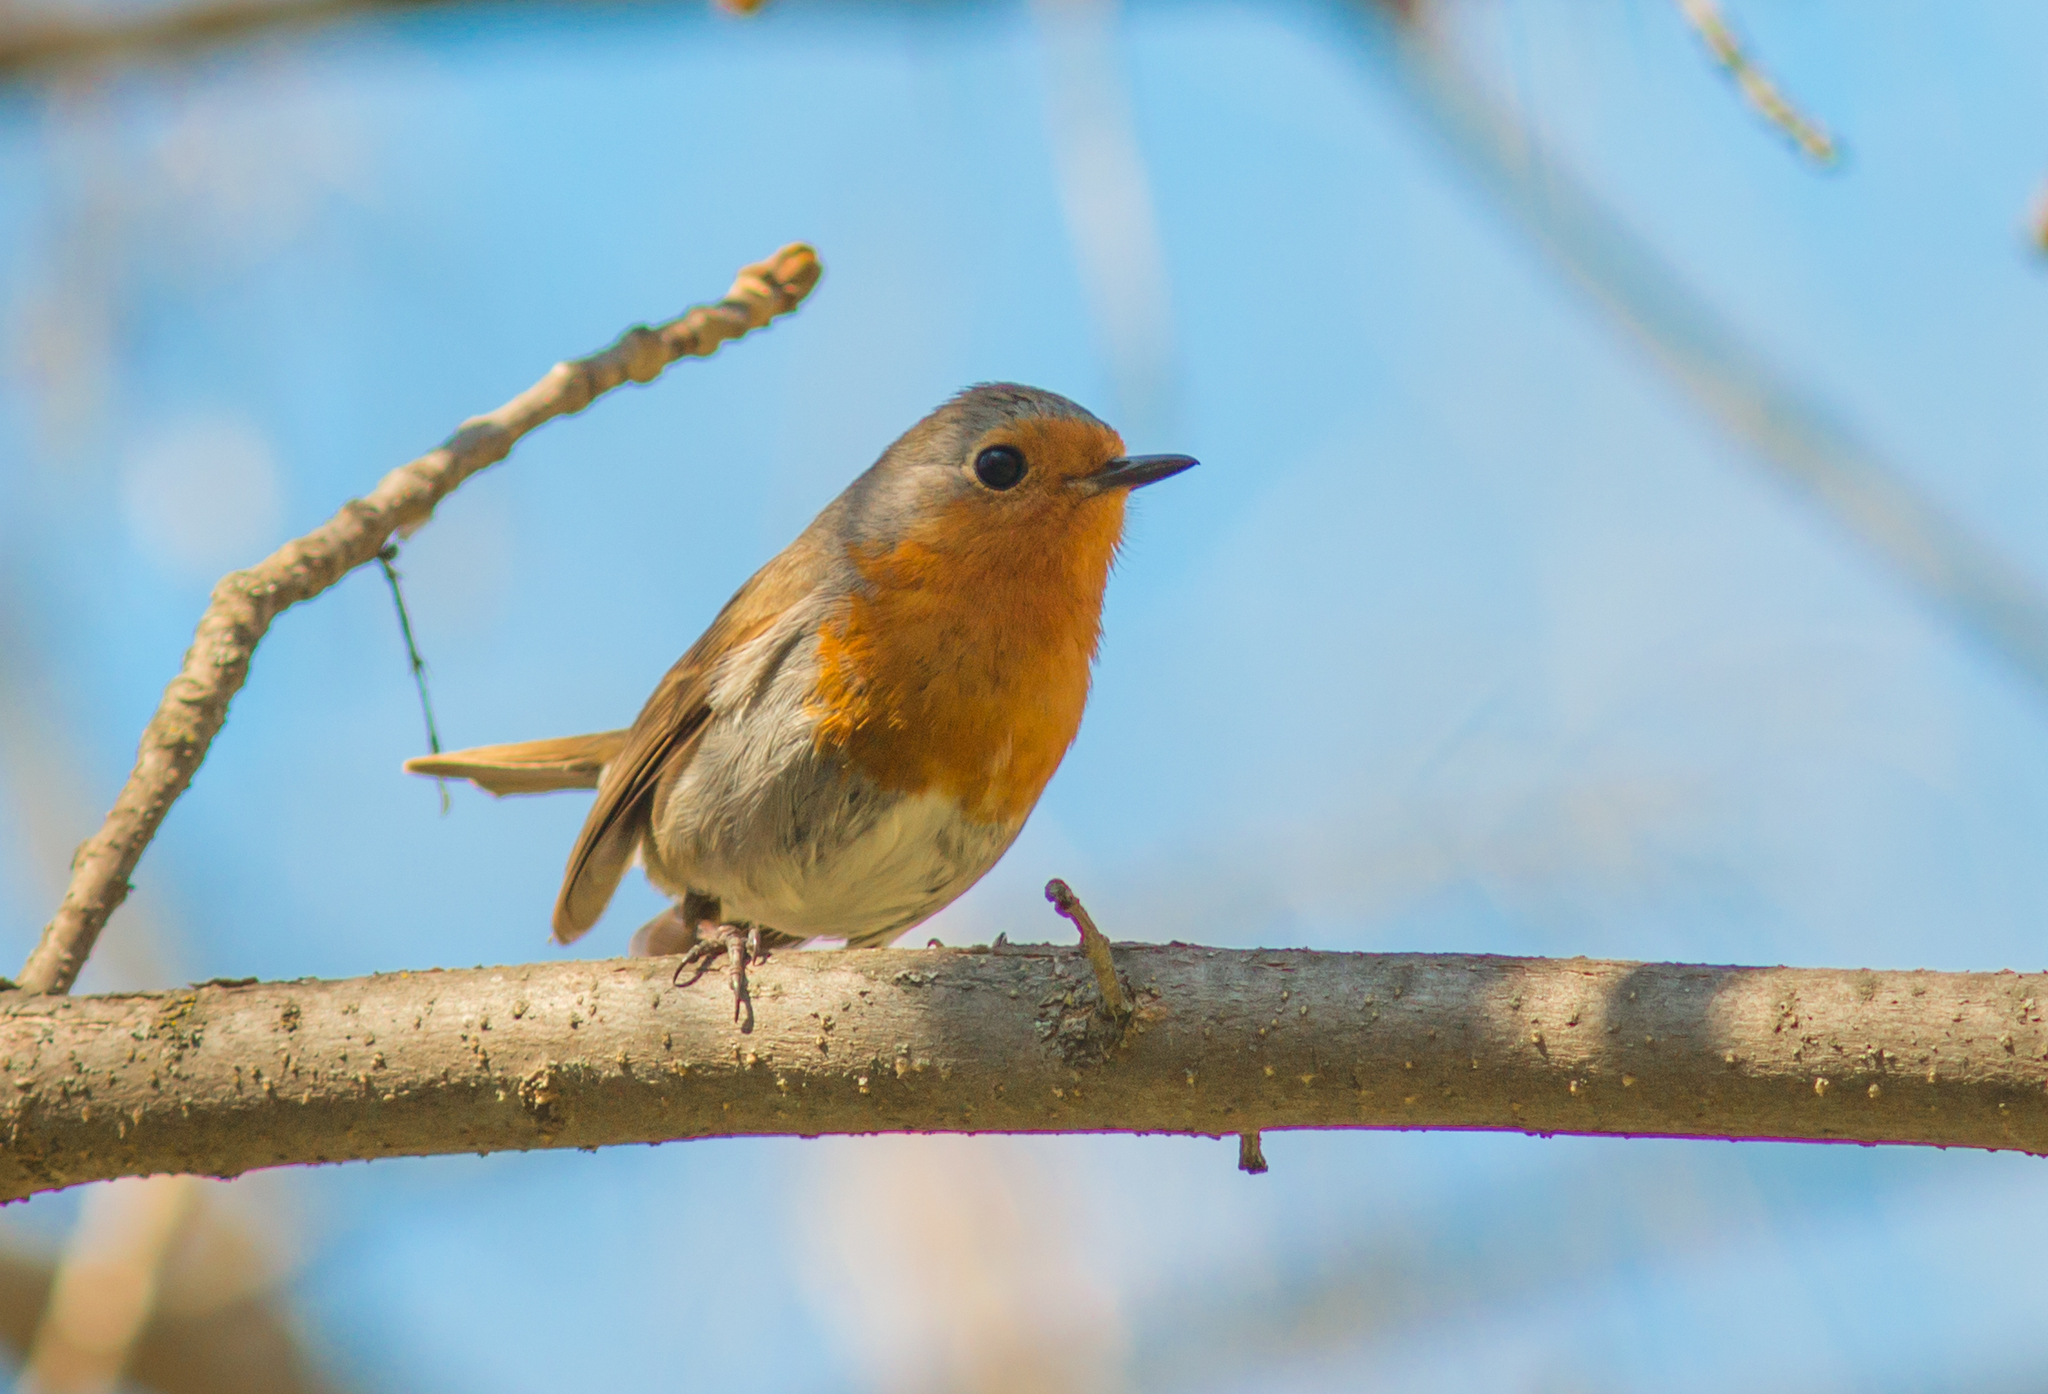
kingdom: Animalia
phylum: Chordata
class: Aves
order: Passeriformes
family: Muscicapidae
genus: Erithacus
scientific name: Erithacus rubecula
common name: European robin
